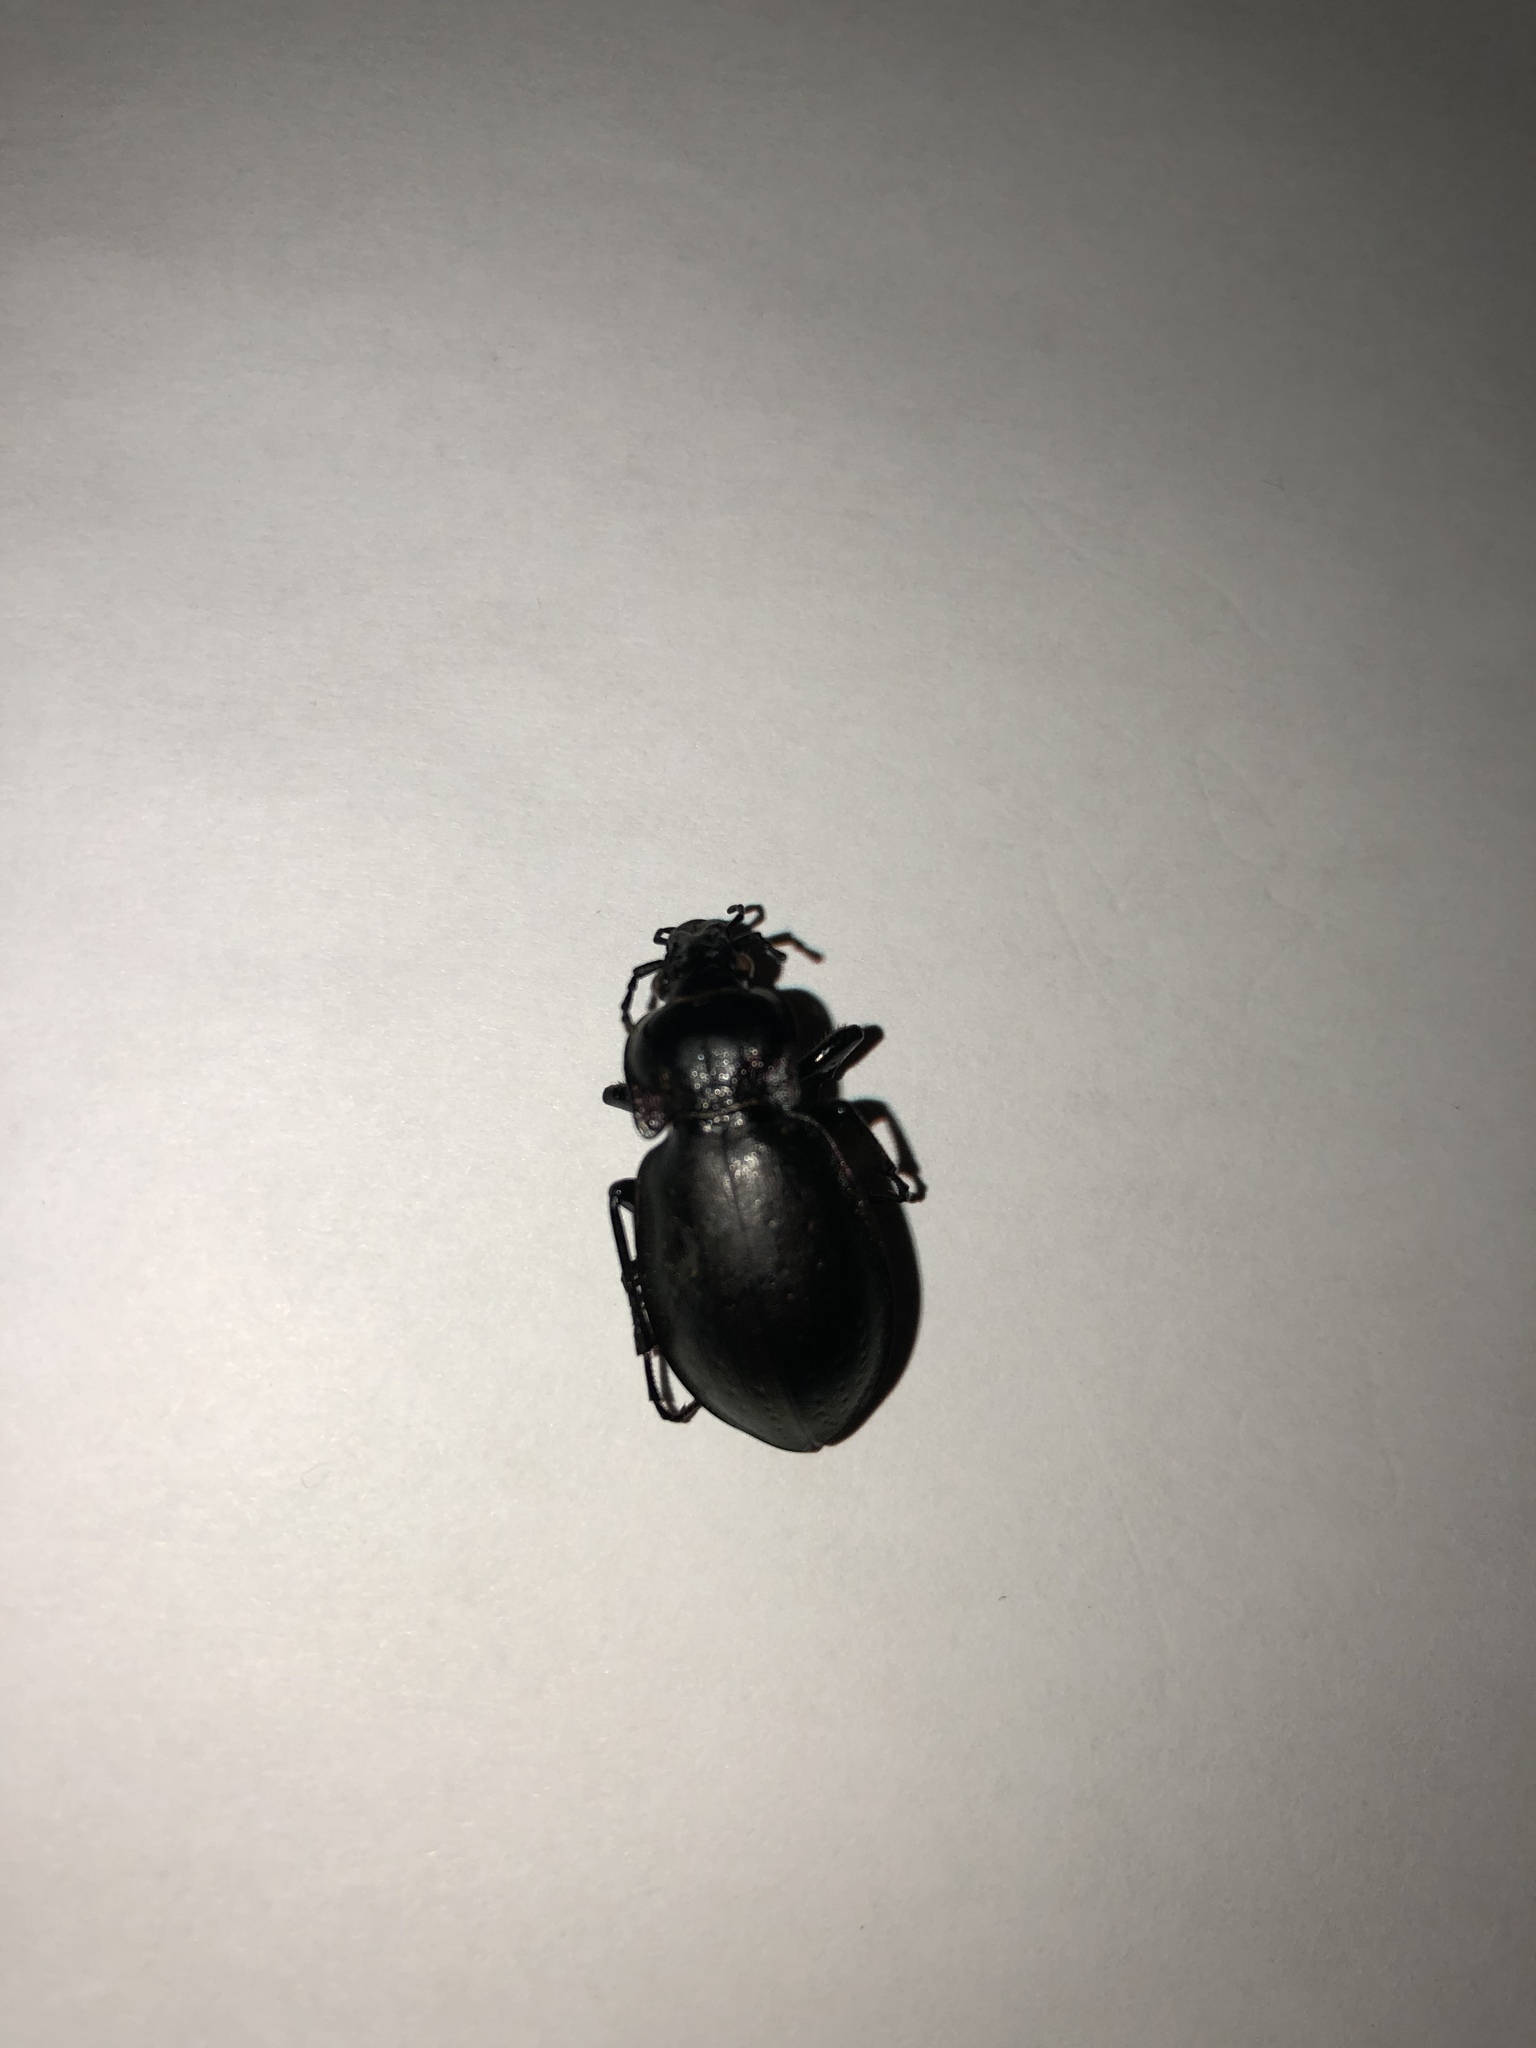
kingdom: Animalia
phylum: Arthropoda
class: Insecta
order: Coleoptera
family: Carabidae
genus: Carabus
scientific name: Carabus nemoralis
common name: European ground beetle
